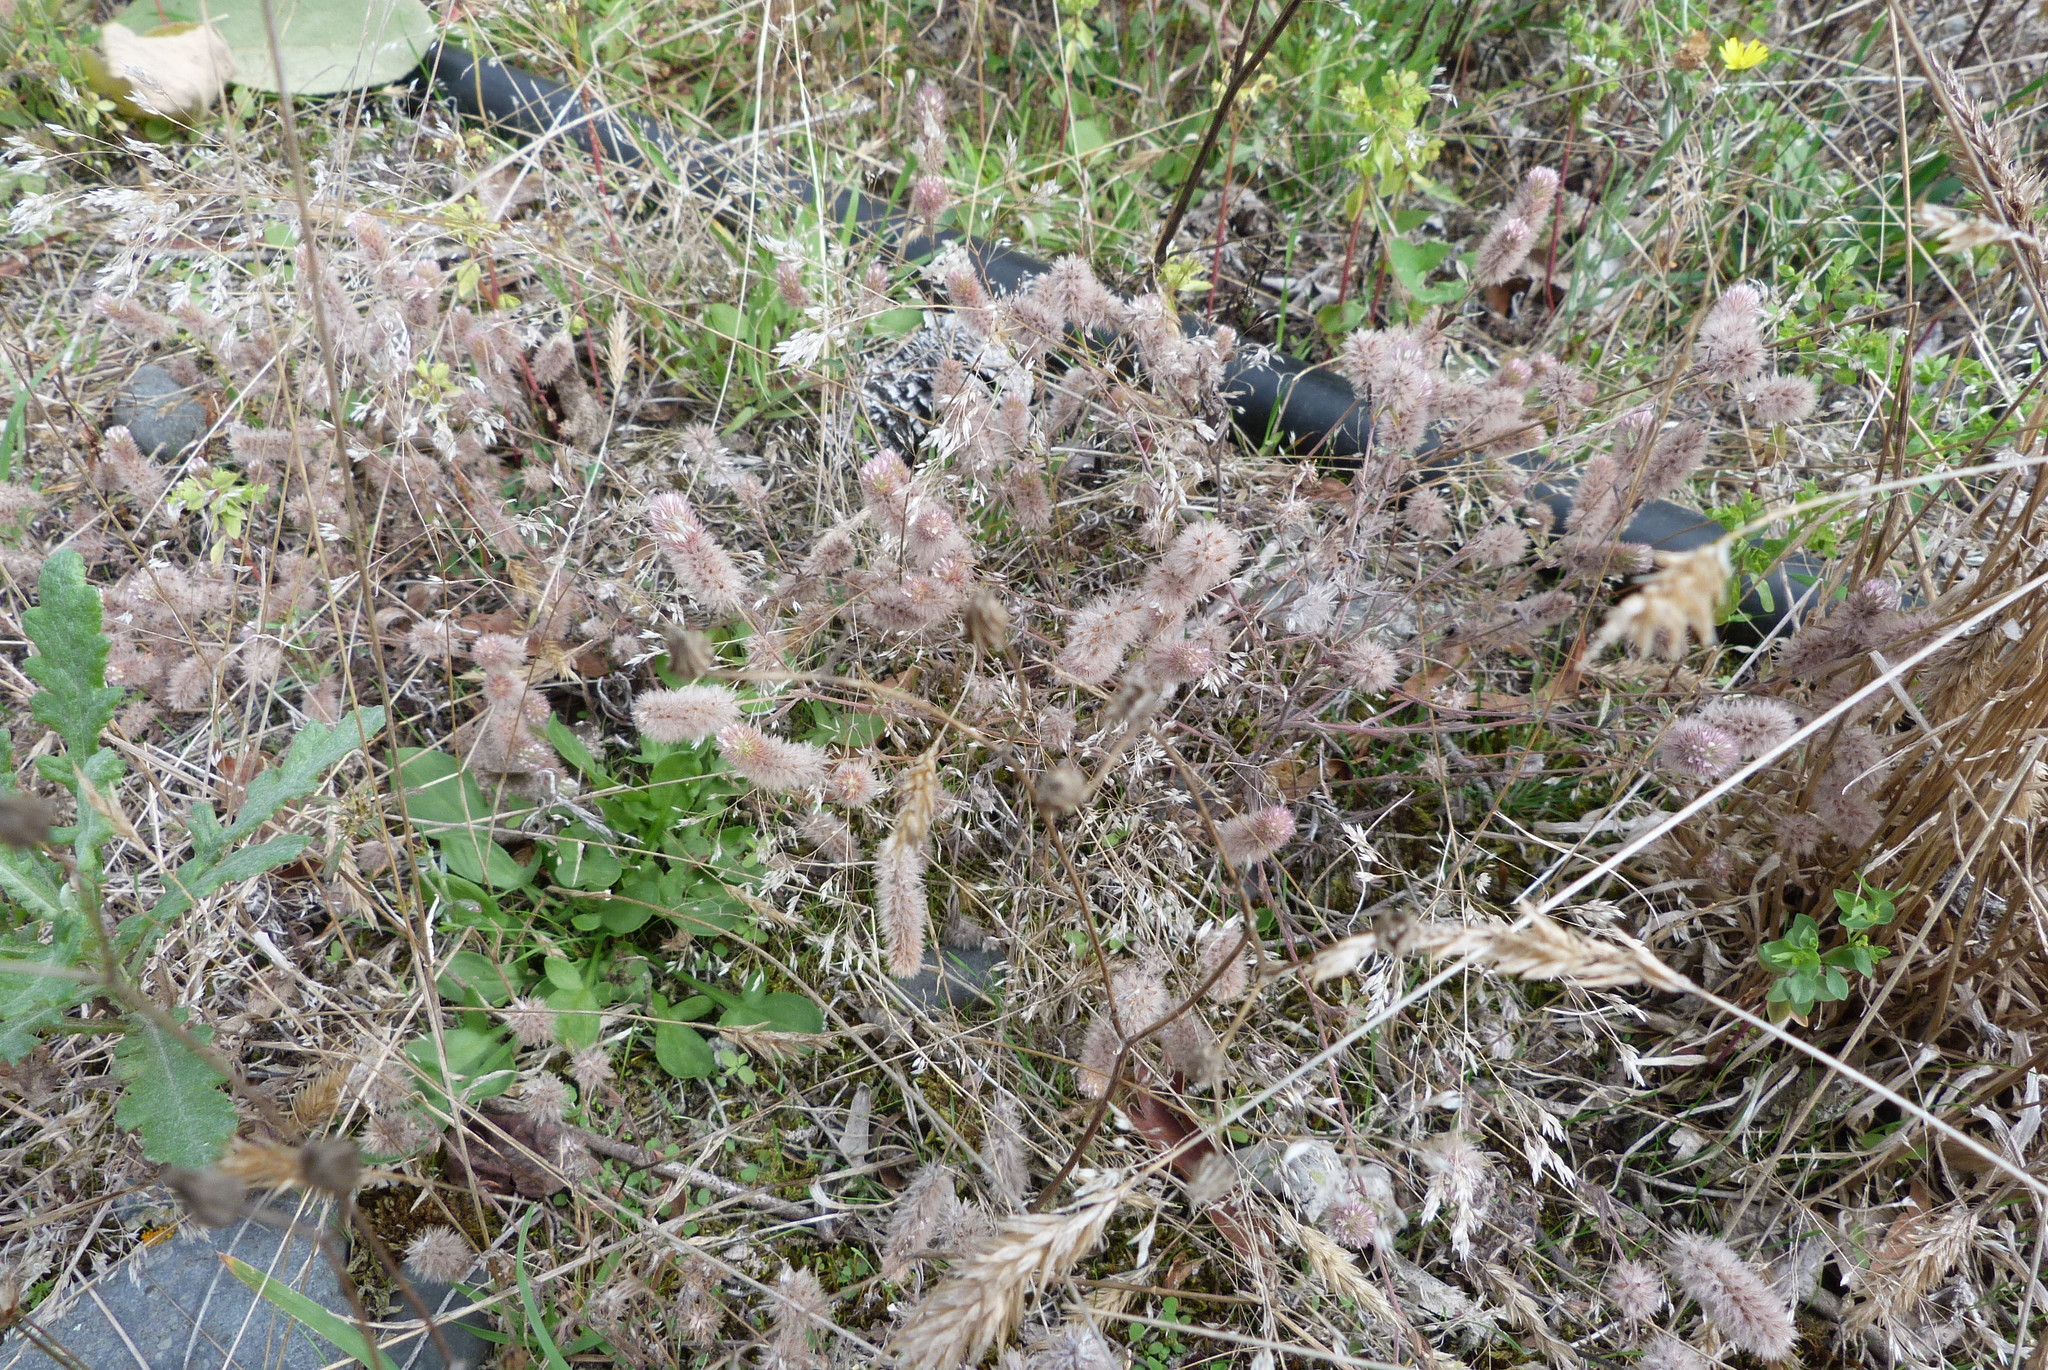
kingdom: Plantae
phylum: Tracheophyta
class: Magnoliopsida
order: Fabales
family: Fabaceae
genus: Trifolium
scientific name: Trifolium arvense
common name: Hare's-foot clover
